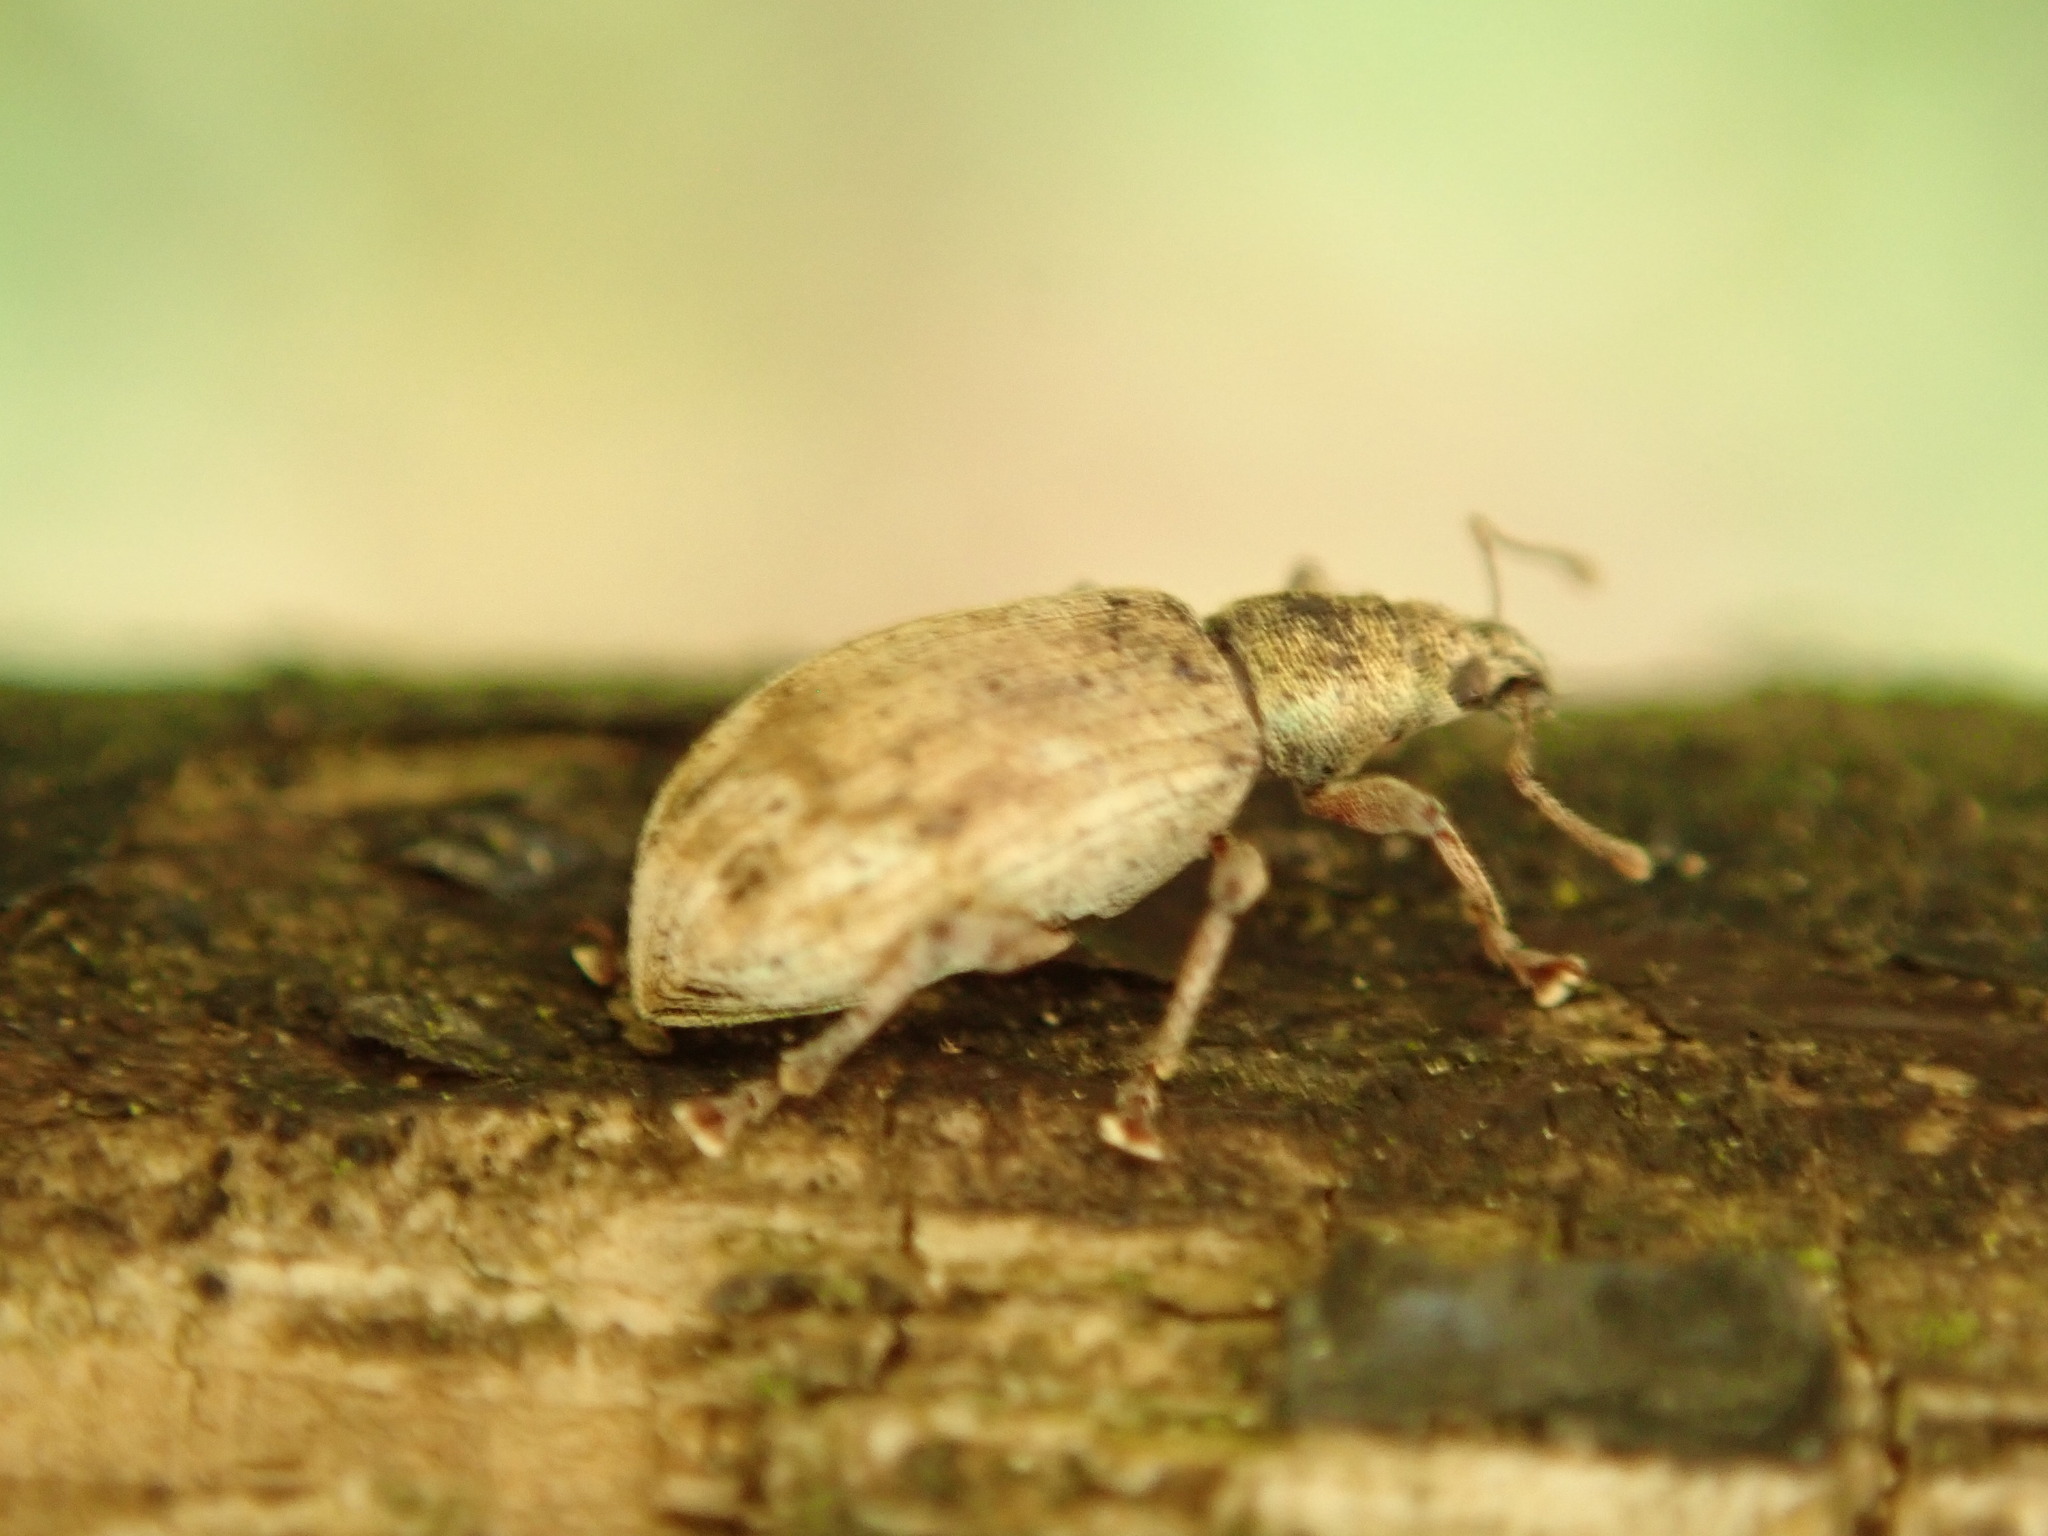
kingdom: Animalia
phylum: Arthropoda
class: Insecta
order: Coleoptera
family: Curculionidae
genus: Polydrusus
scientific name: Polydrusus tereticollis
